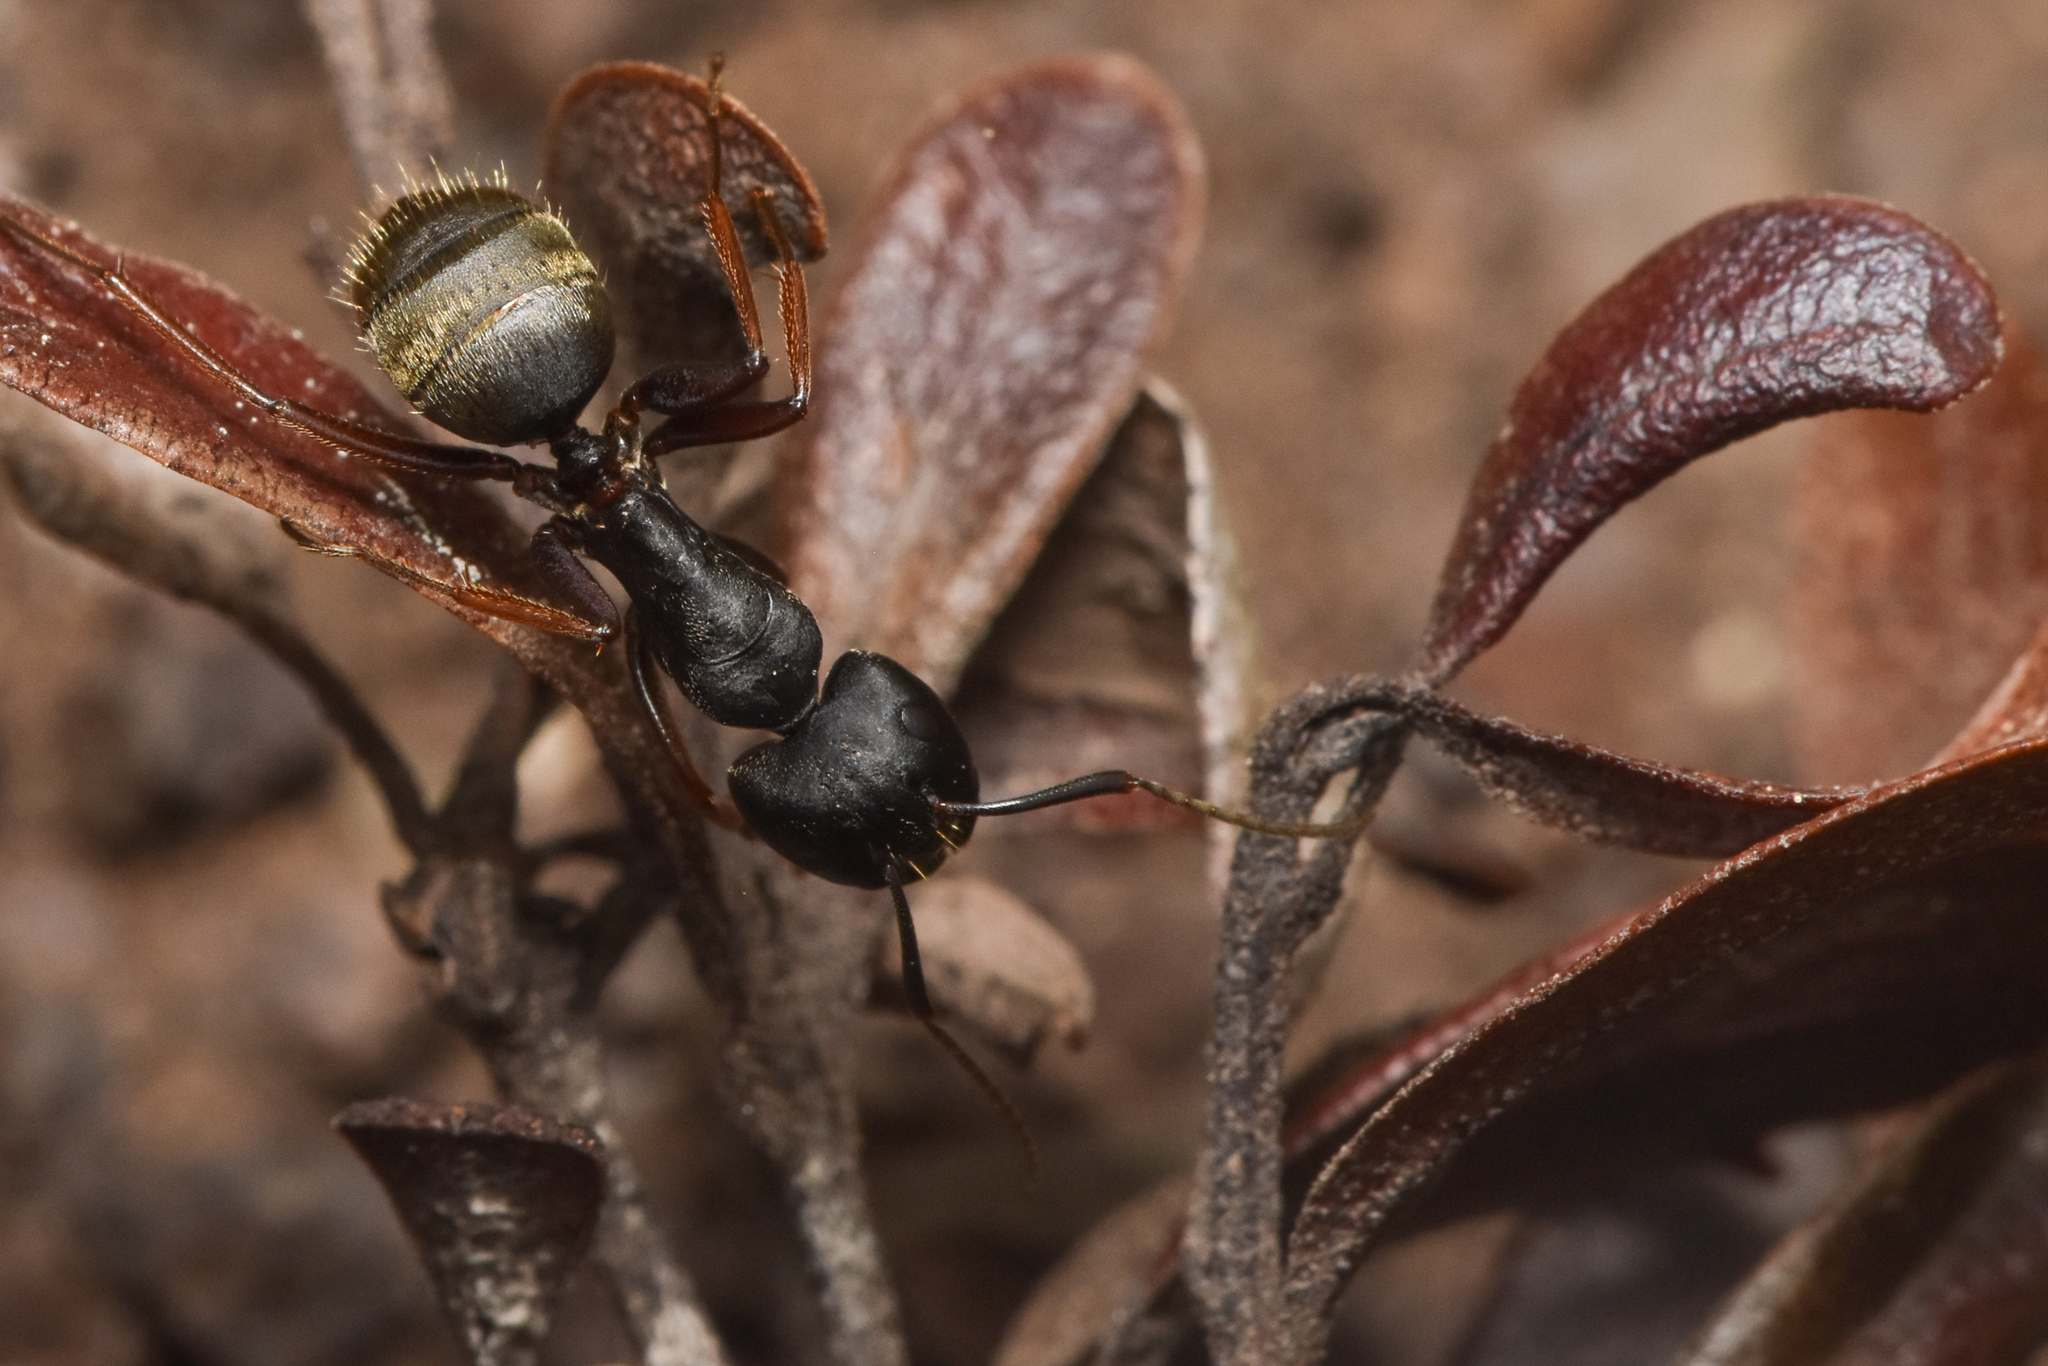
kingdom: Animalia
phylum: Arthropoda
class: Insecta
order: Hymenoptera
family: Formicidae
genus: Camponotus
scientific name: Camponotus modoc
